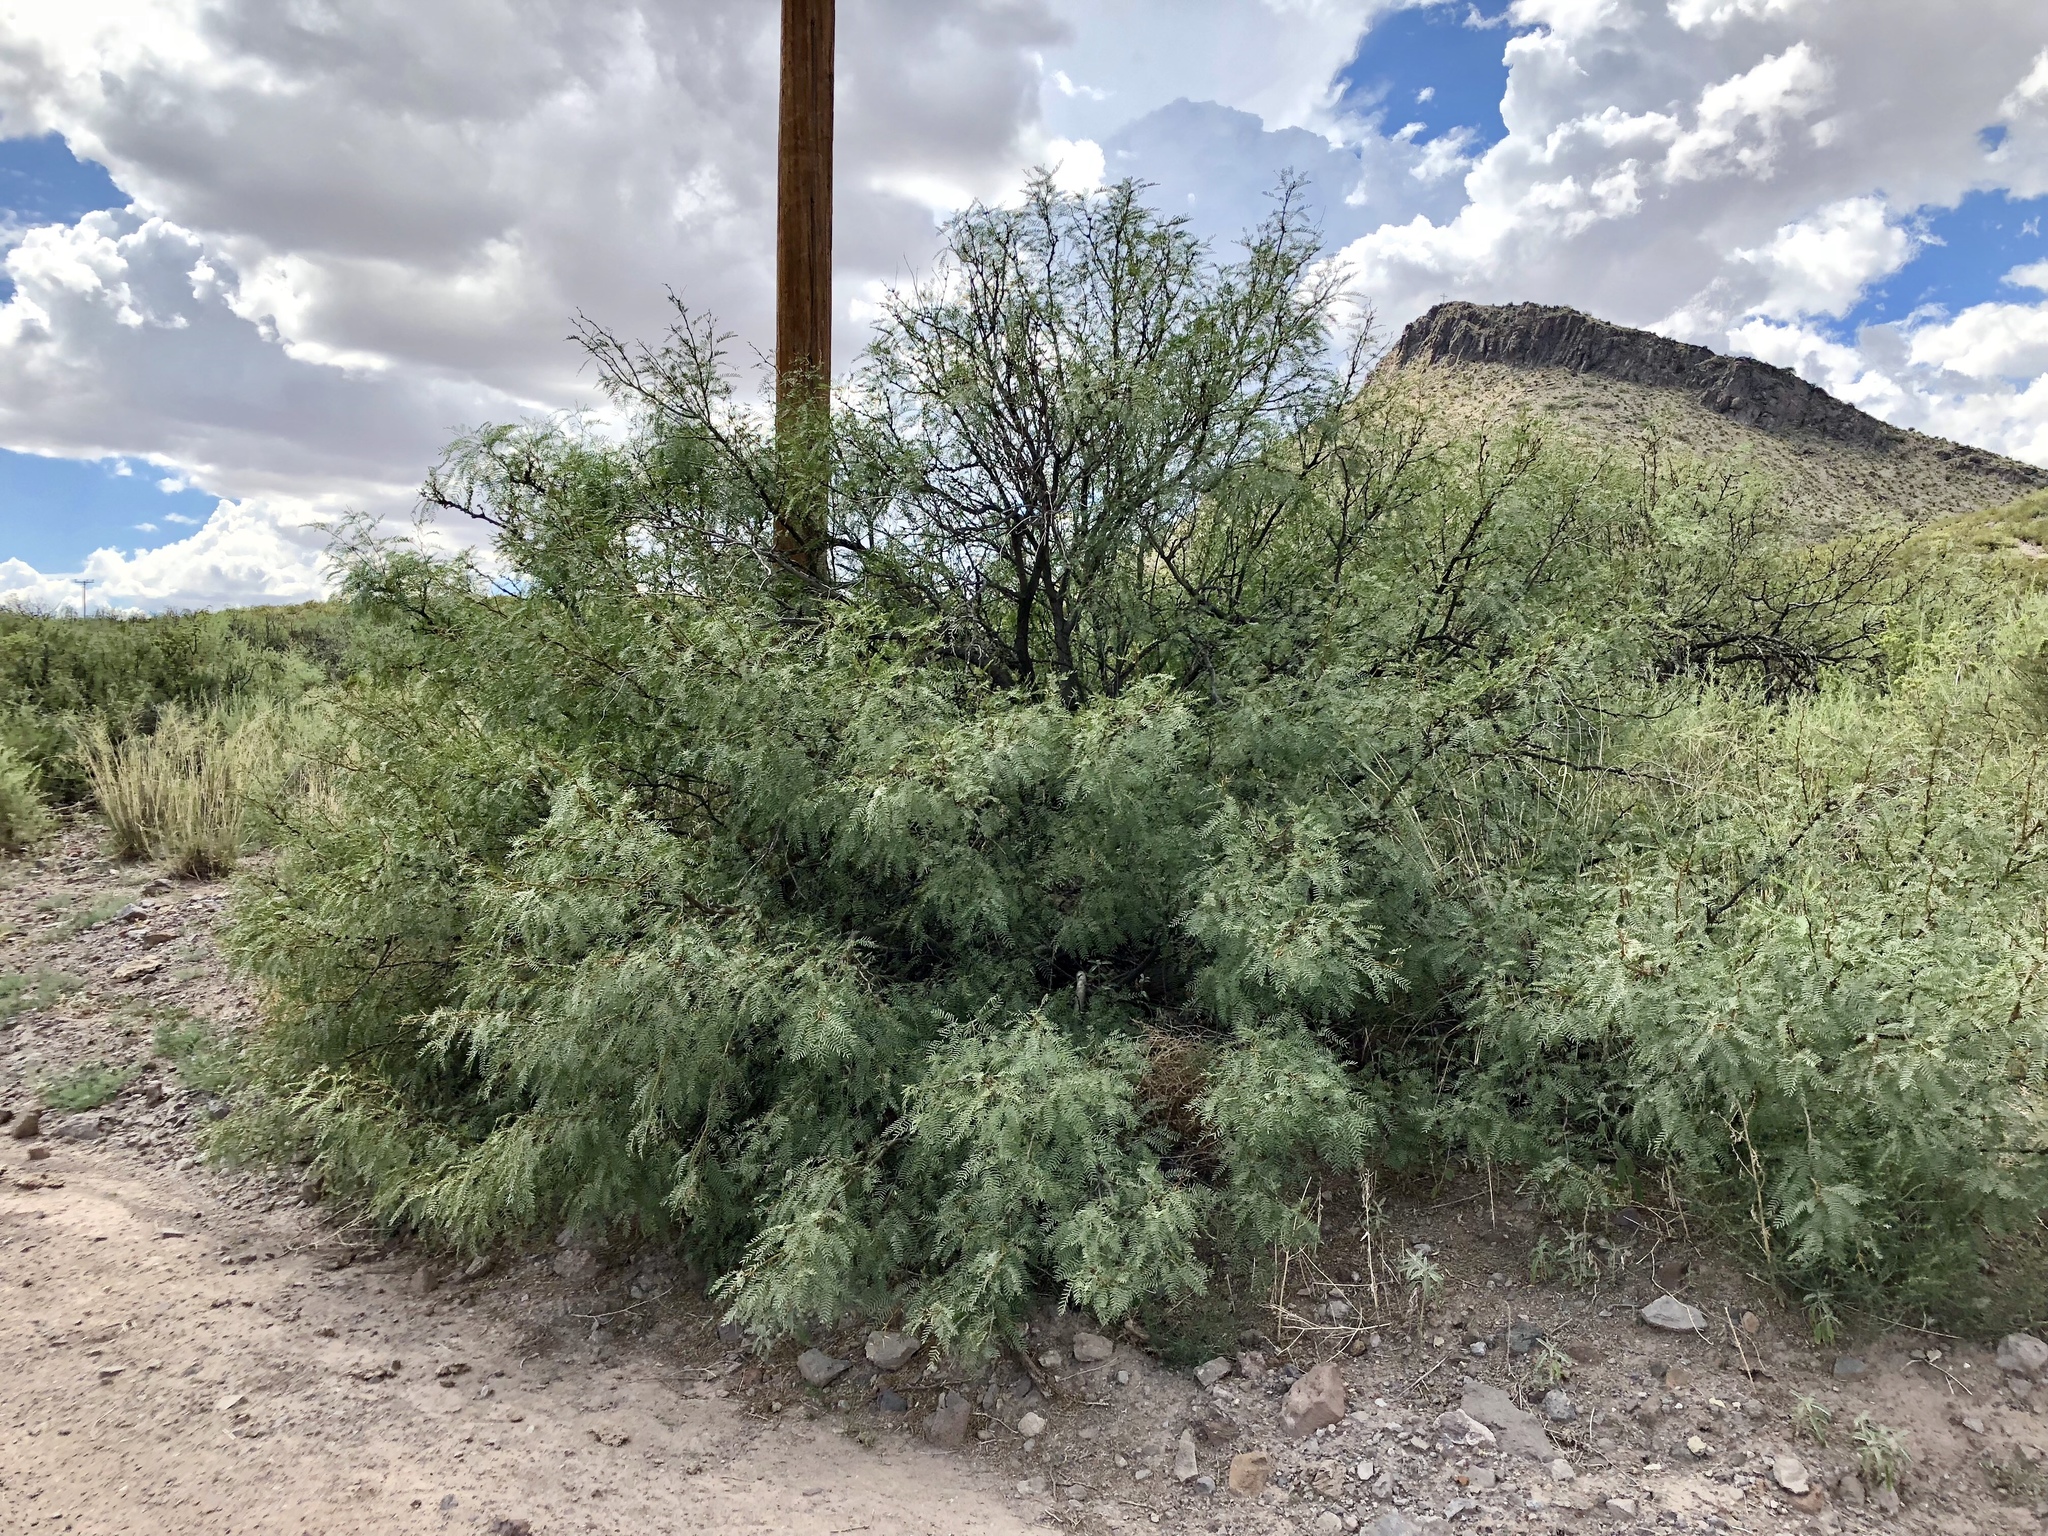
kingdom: Plantae
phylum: Tracheophyta
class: Magnoliopsida
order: Fabales
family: Fabaceae
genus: Prosopis
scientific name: Prosopis glandulosa
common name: Honey mesquite
